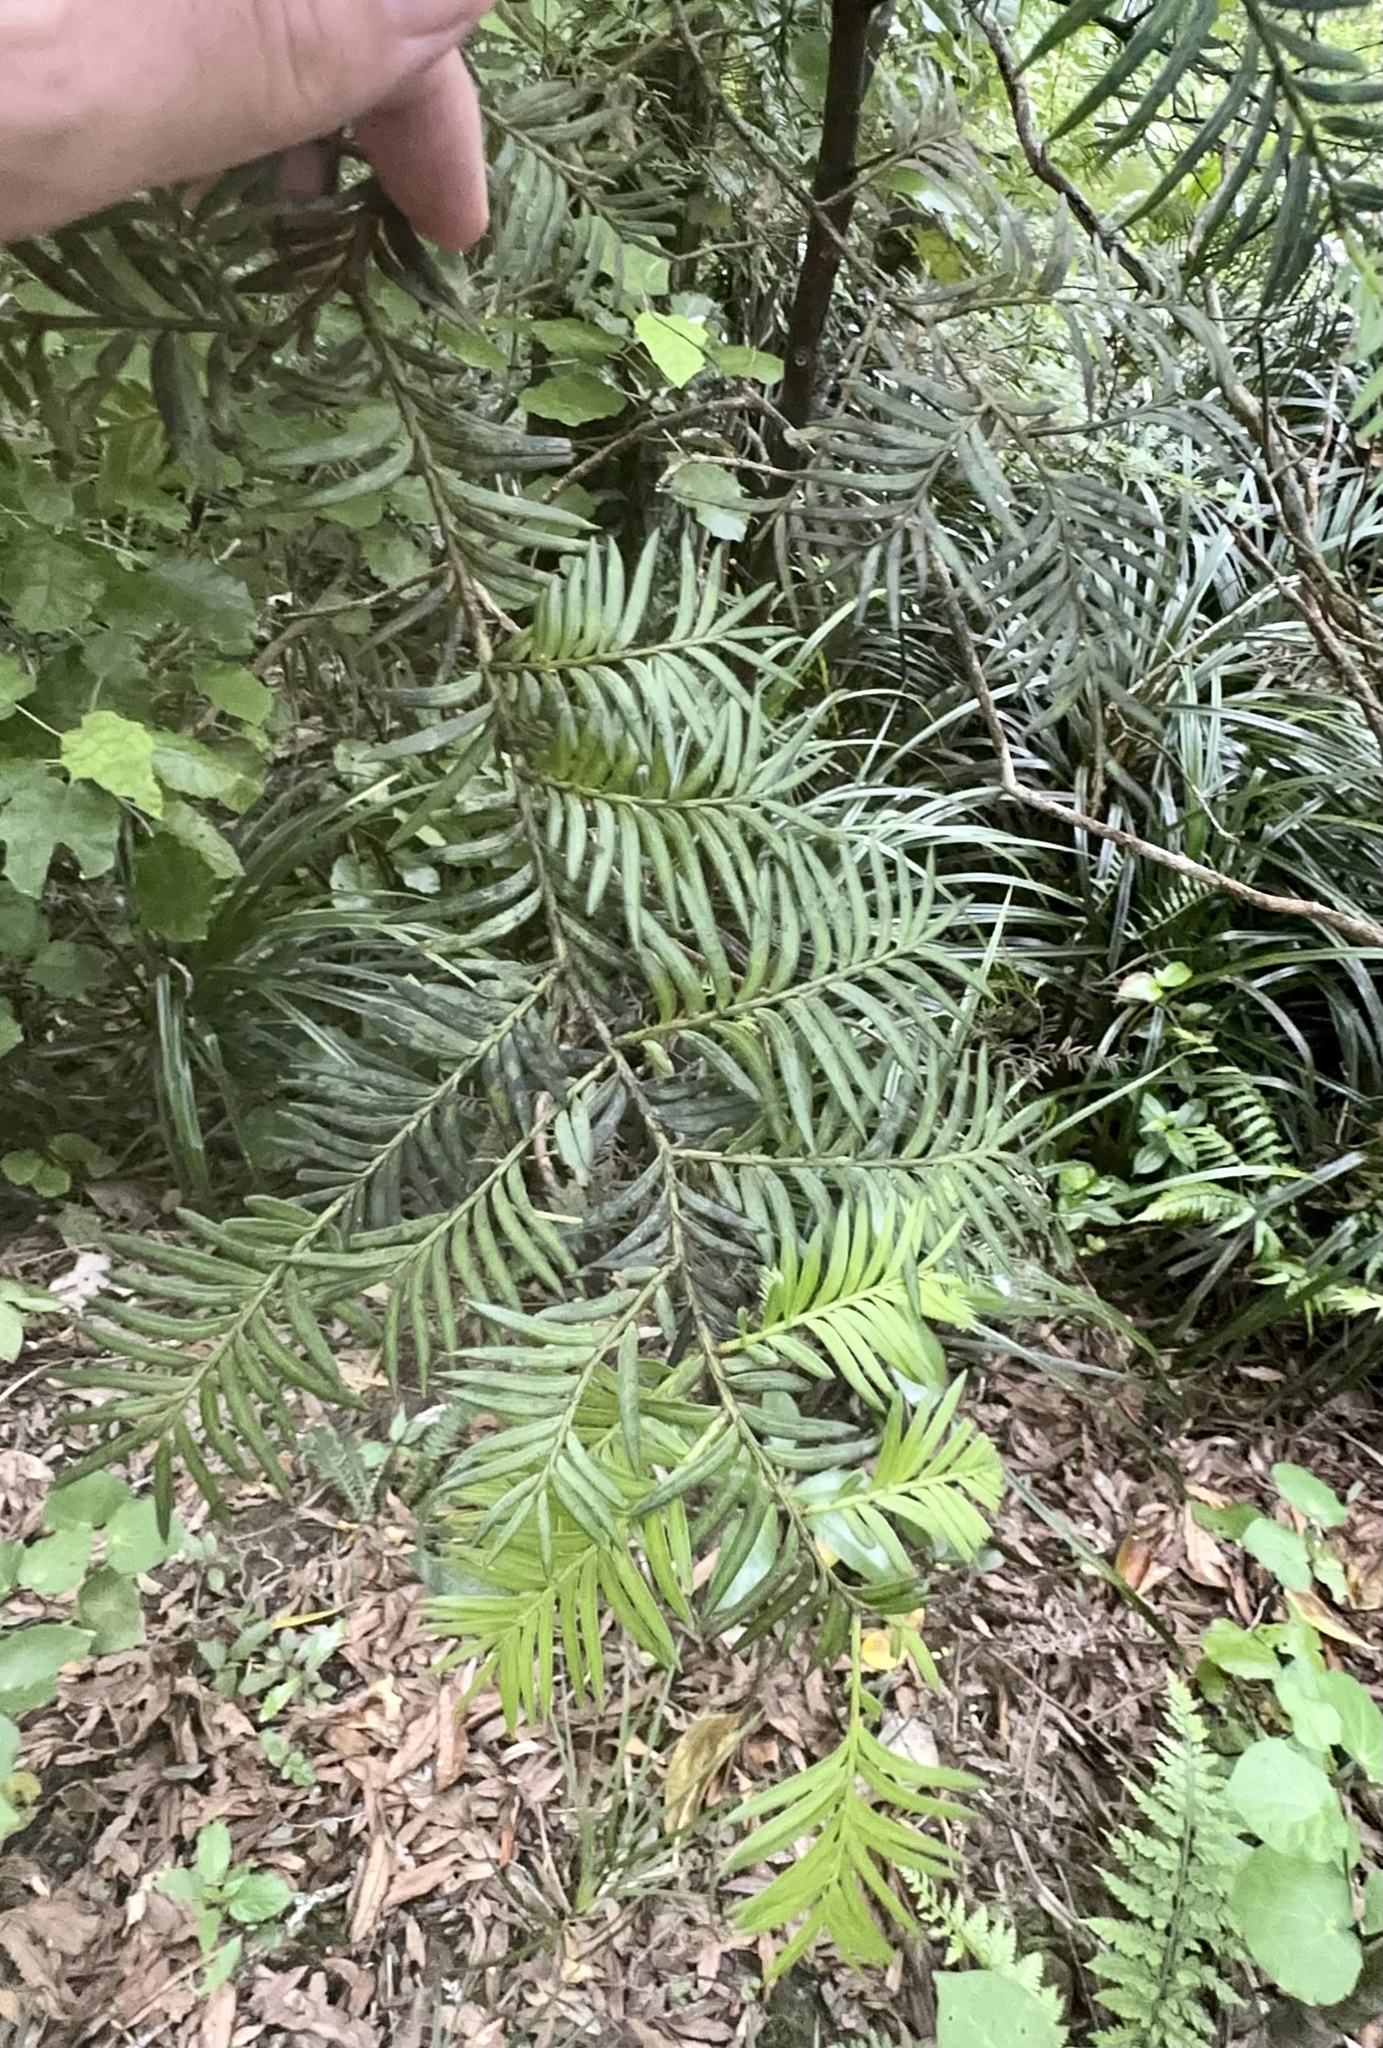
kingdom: Plantae
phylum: Tracheophyta
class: Pinopsida
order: Pinales
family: Podocarpaceae
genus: Prumnopitys
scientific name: Prumnopitys ferruginea
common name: Brown pine
